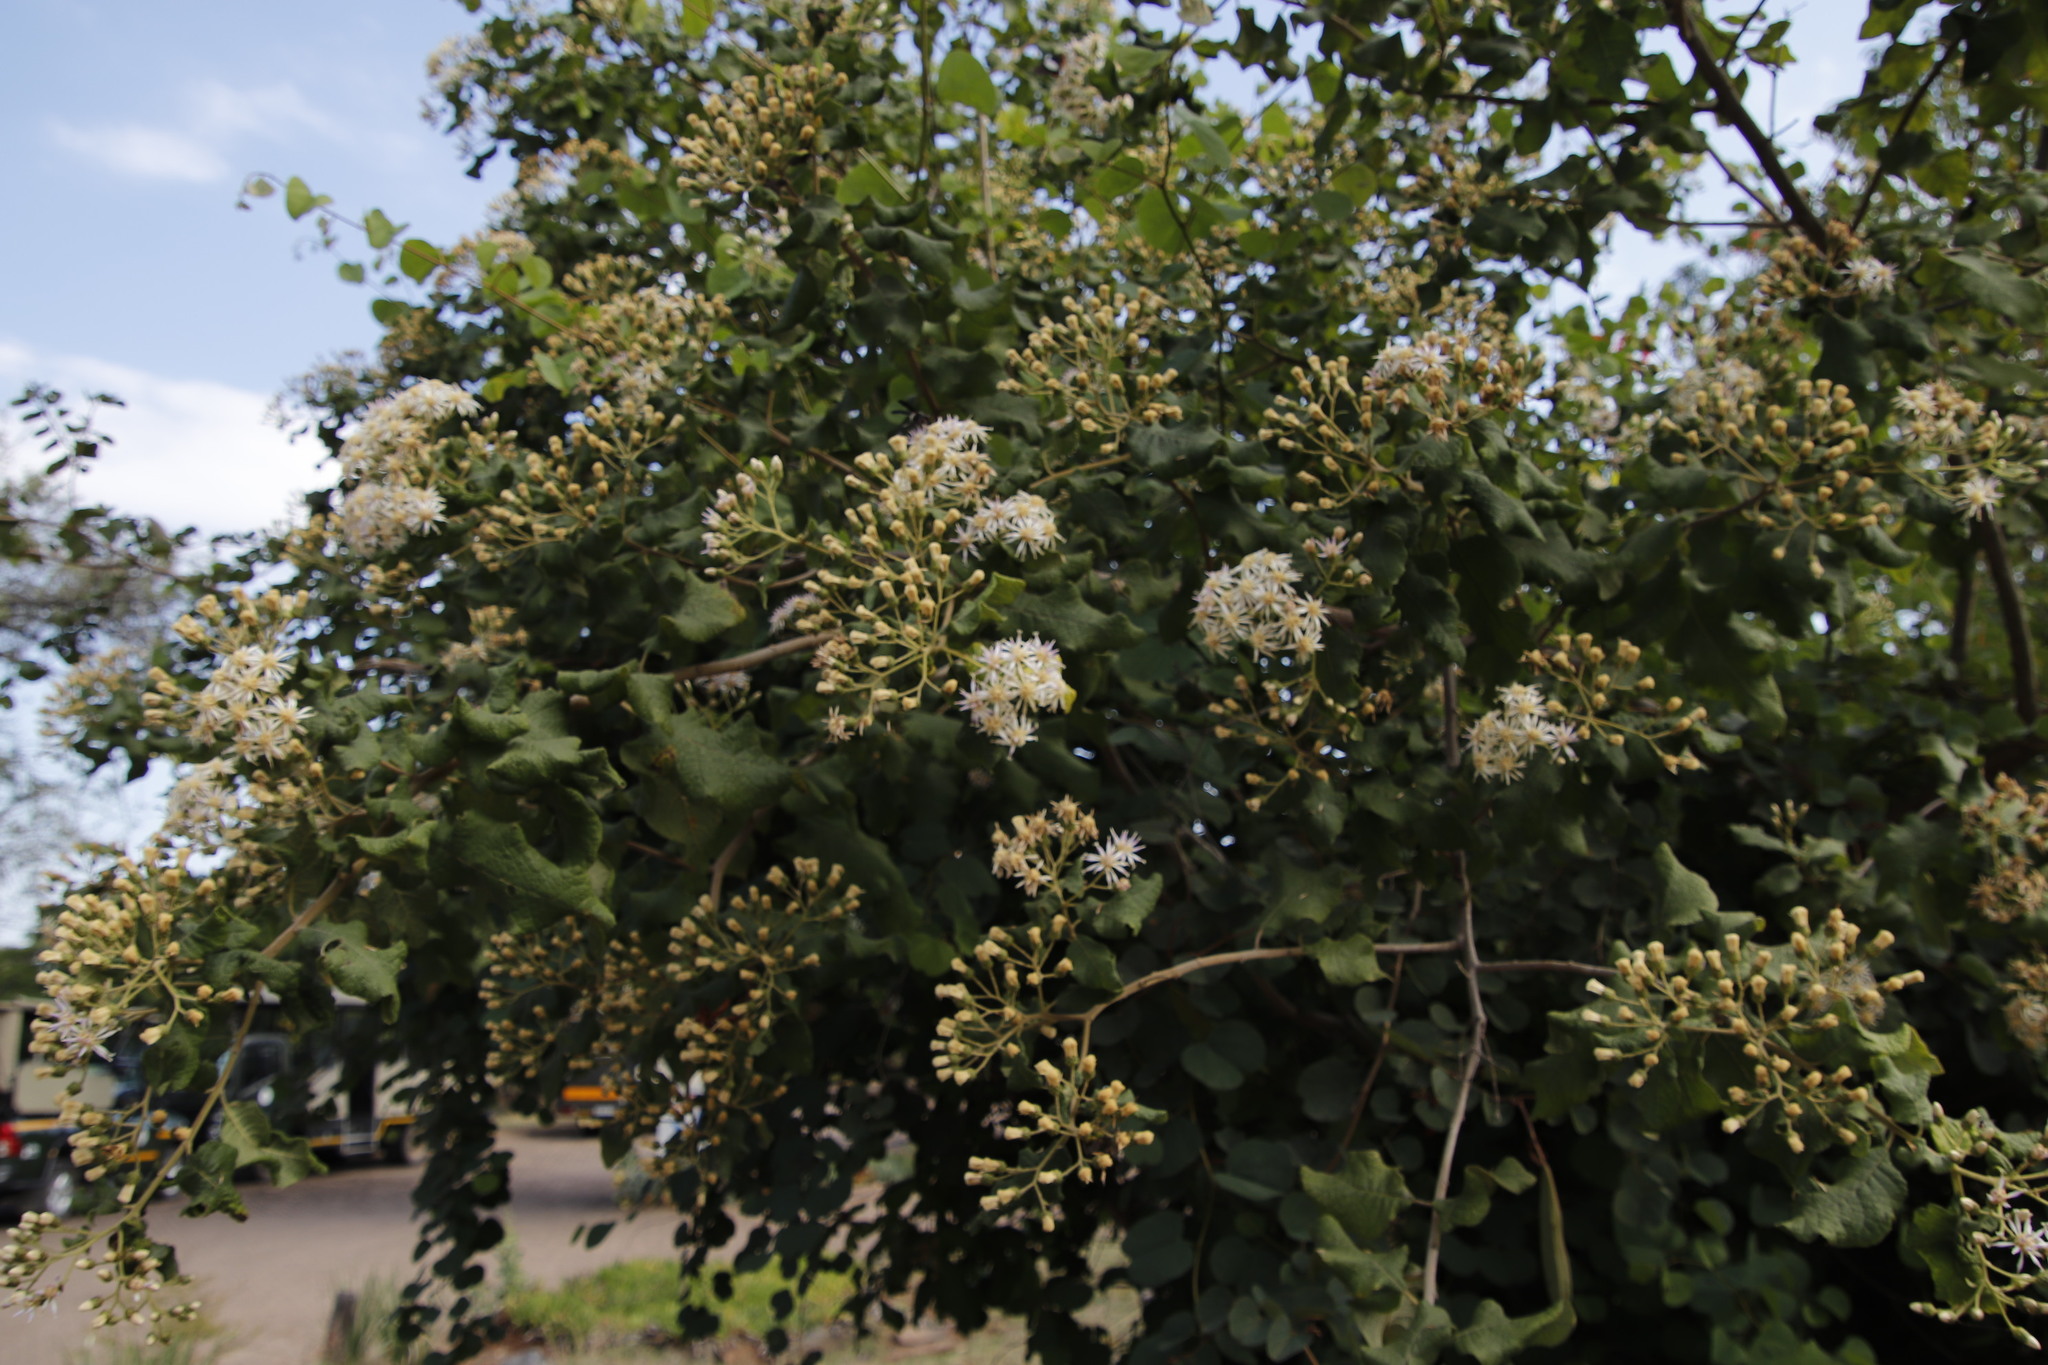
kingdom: Plantae
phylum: Tracheophyta
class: Magnoliopsida
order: Asterales
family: Asteraceae
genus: Vernonia
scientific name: Vernonia colorata
